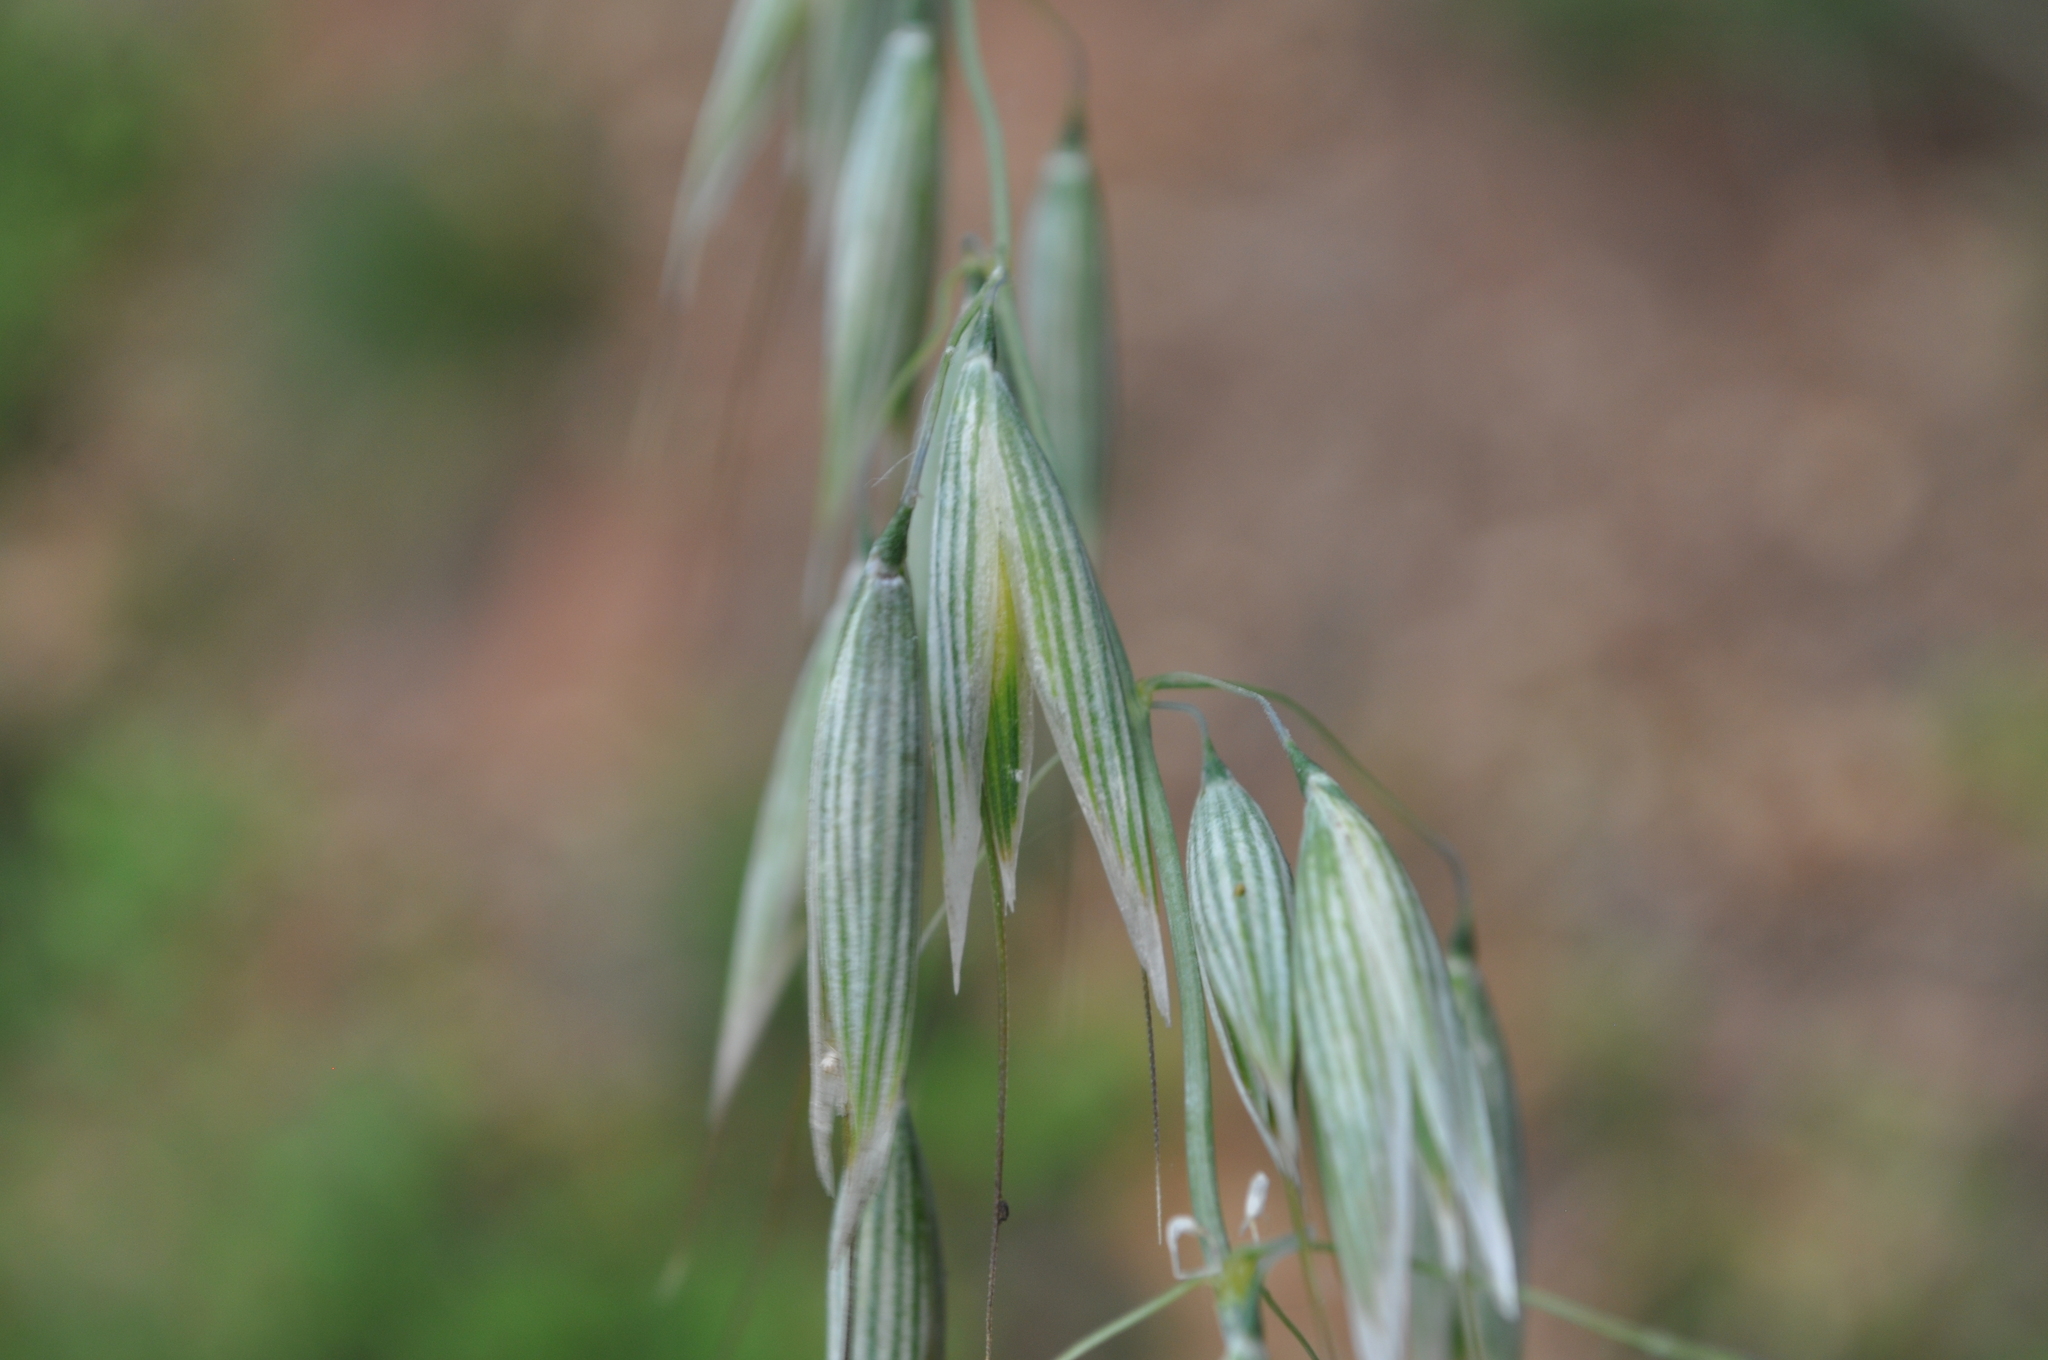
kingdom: Plantae
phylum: Tracheophyta
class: Liliopsida
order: Poales
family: Poaceae
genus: Avena
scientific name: Avena sativa
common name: Oat
